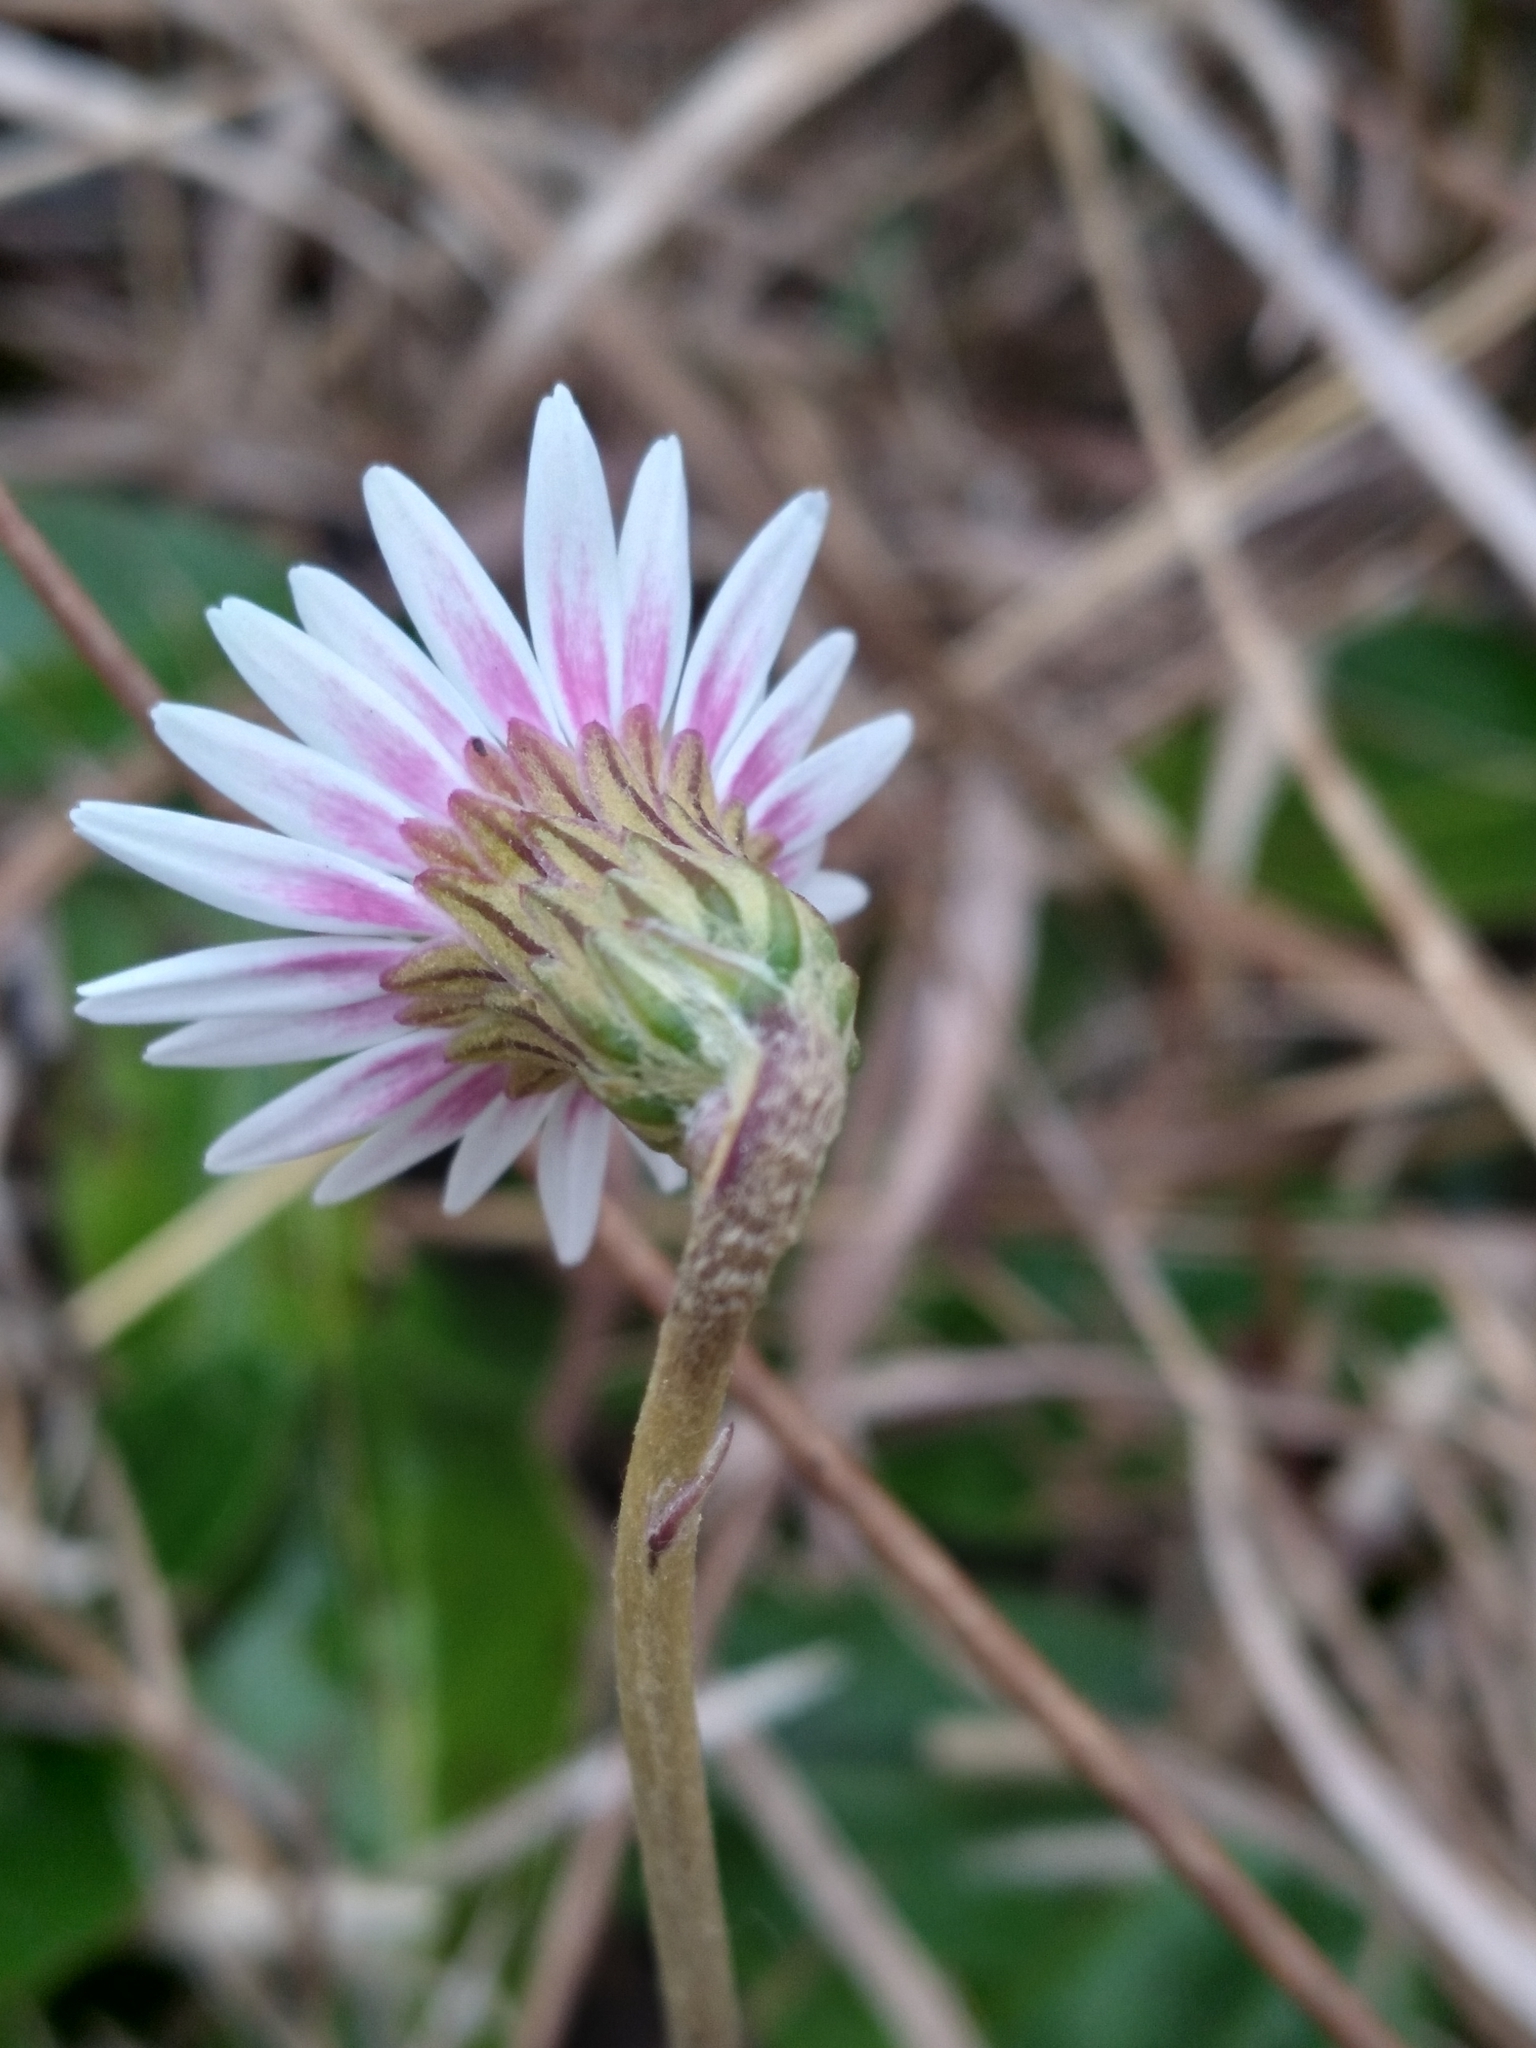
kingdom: Plantae
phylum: Tracheophyta
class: Magnoliopsida
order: Asterales
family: Asteraceae
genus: Chaptalia
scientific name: Chaptalia tomentosa
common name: Woolly sunbonnet
